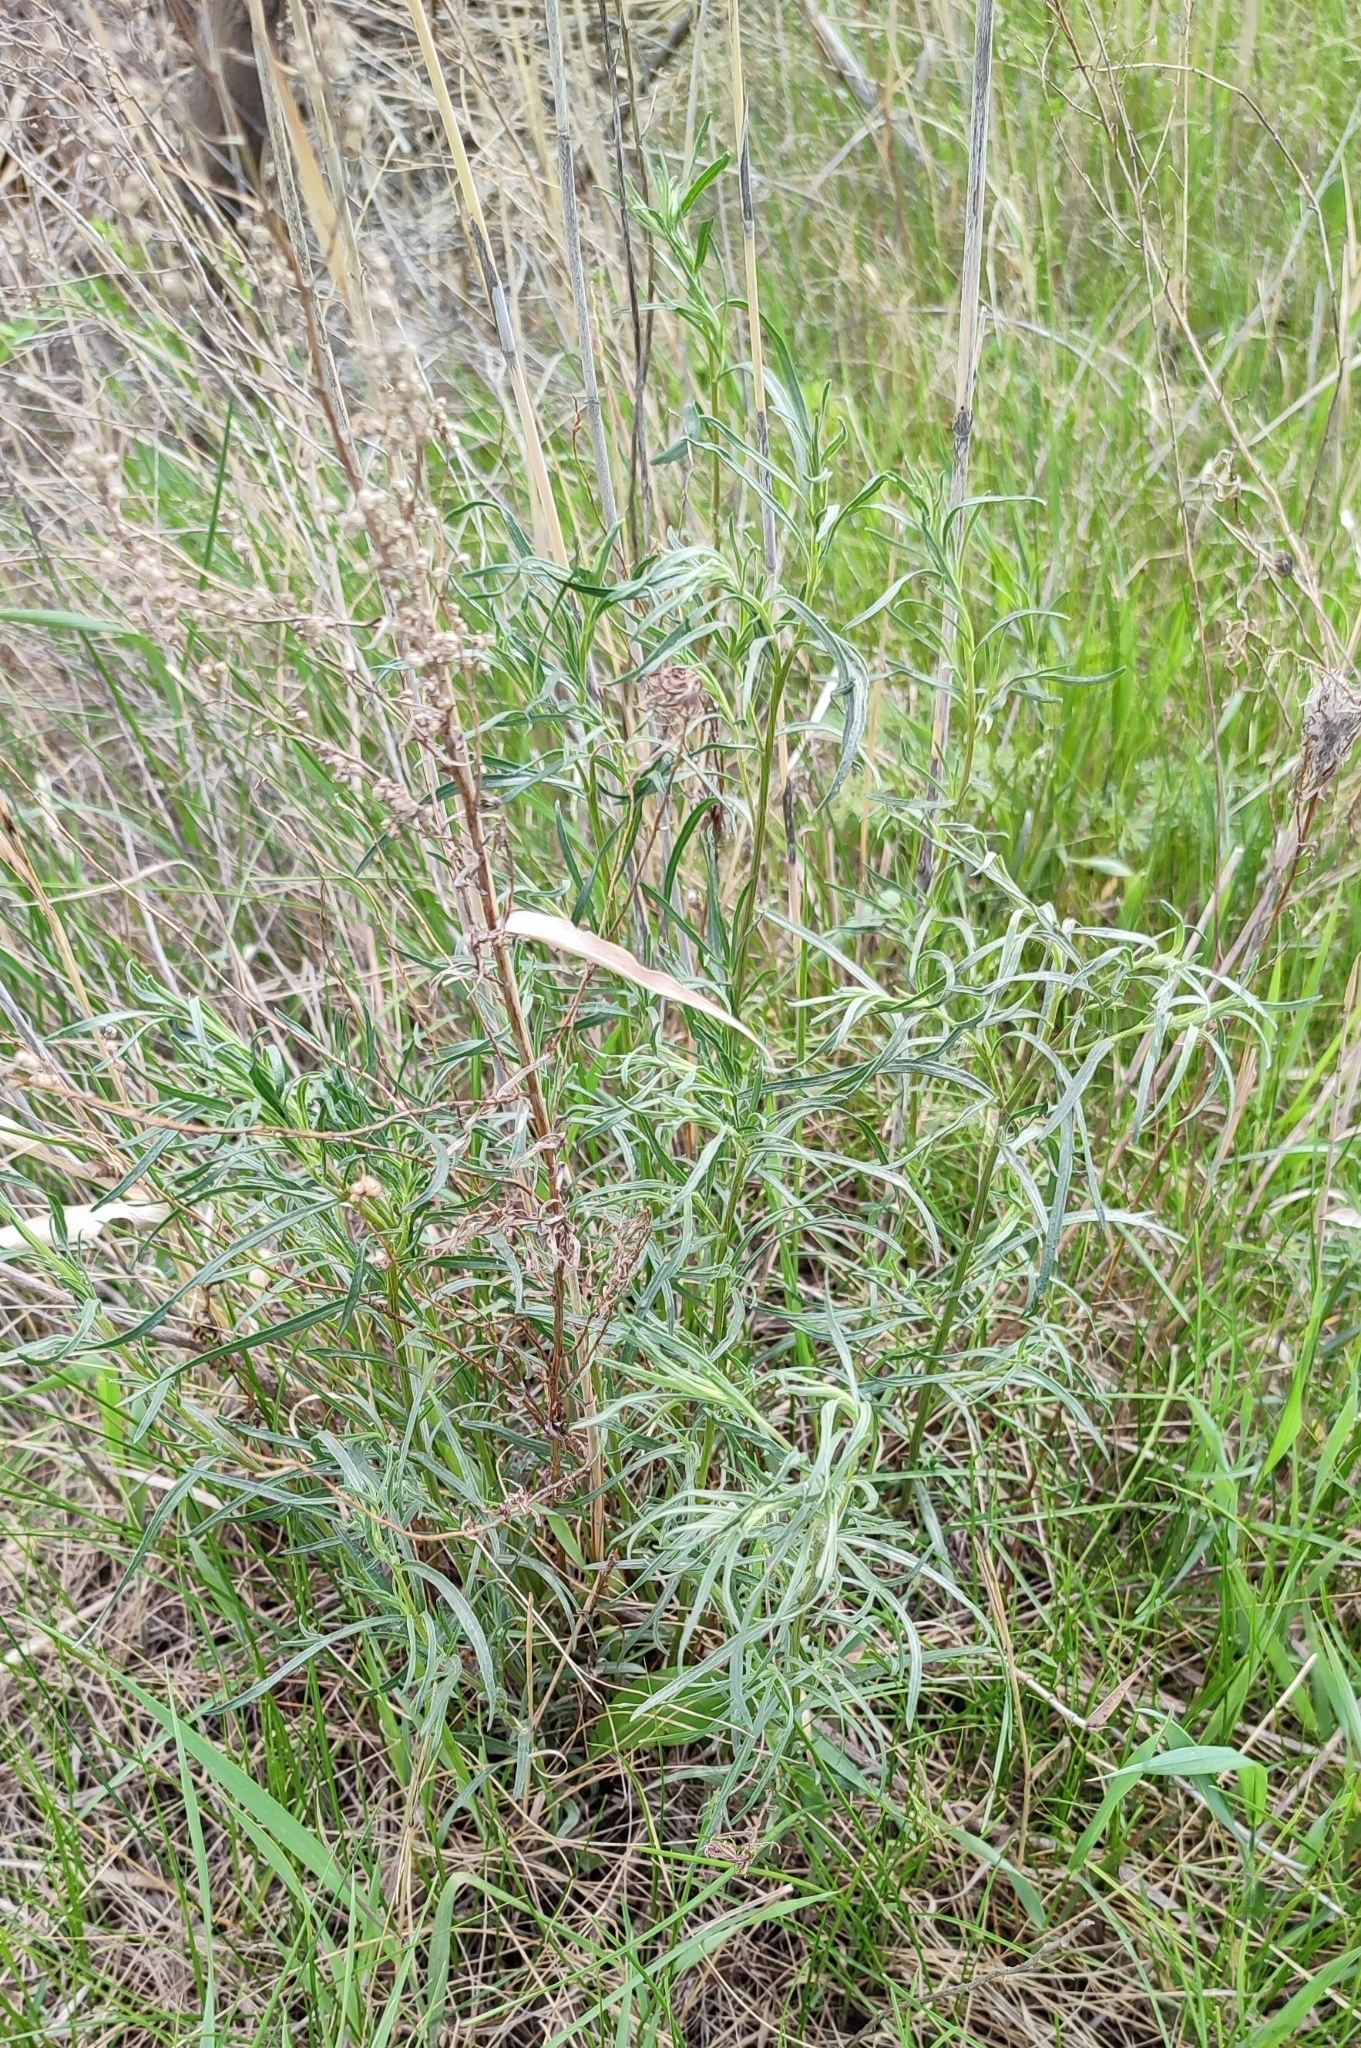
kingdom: Plantae
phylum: Tracheophyta
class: Magnoliopsida
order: Asterales
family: Asteraceae
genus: Artemisia
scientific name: Artemisia dracunculus
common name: Tarragon
